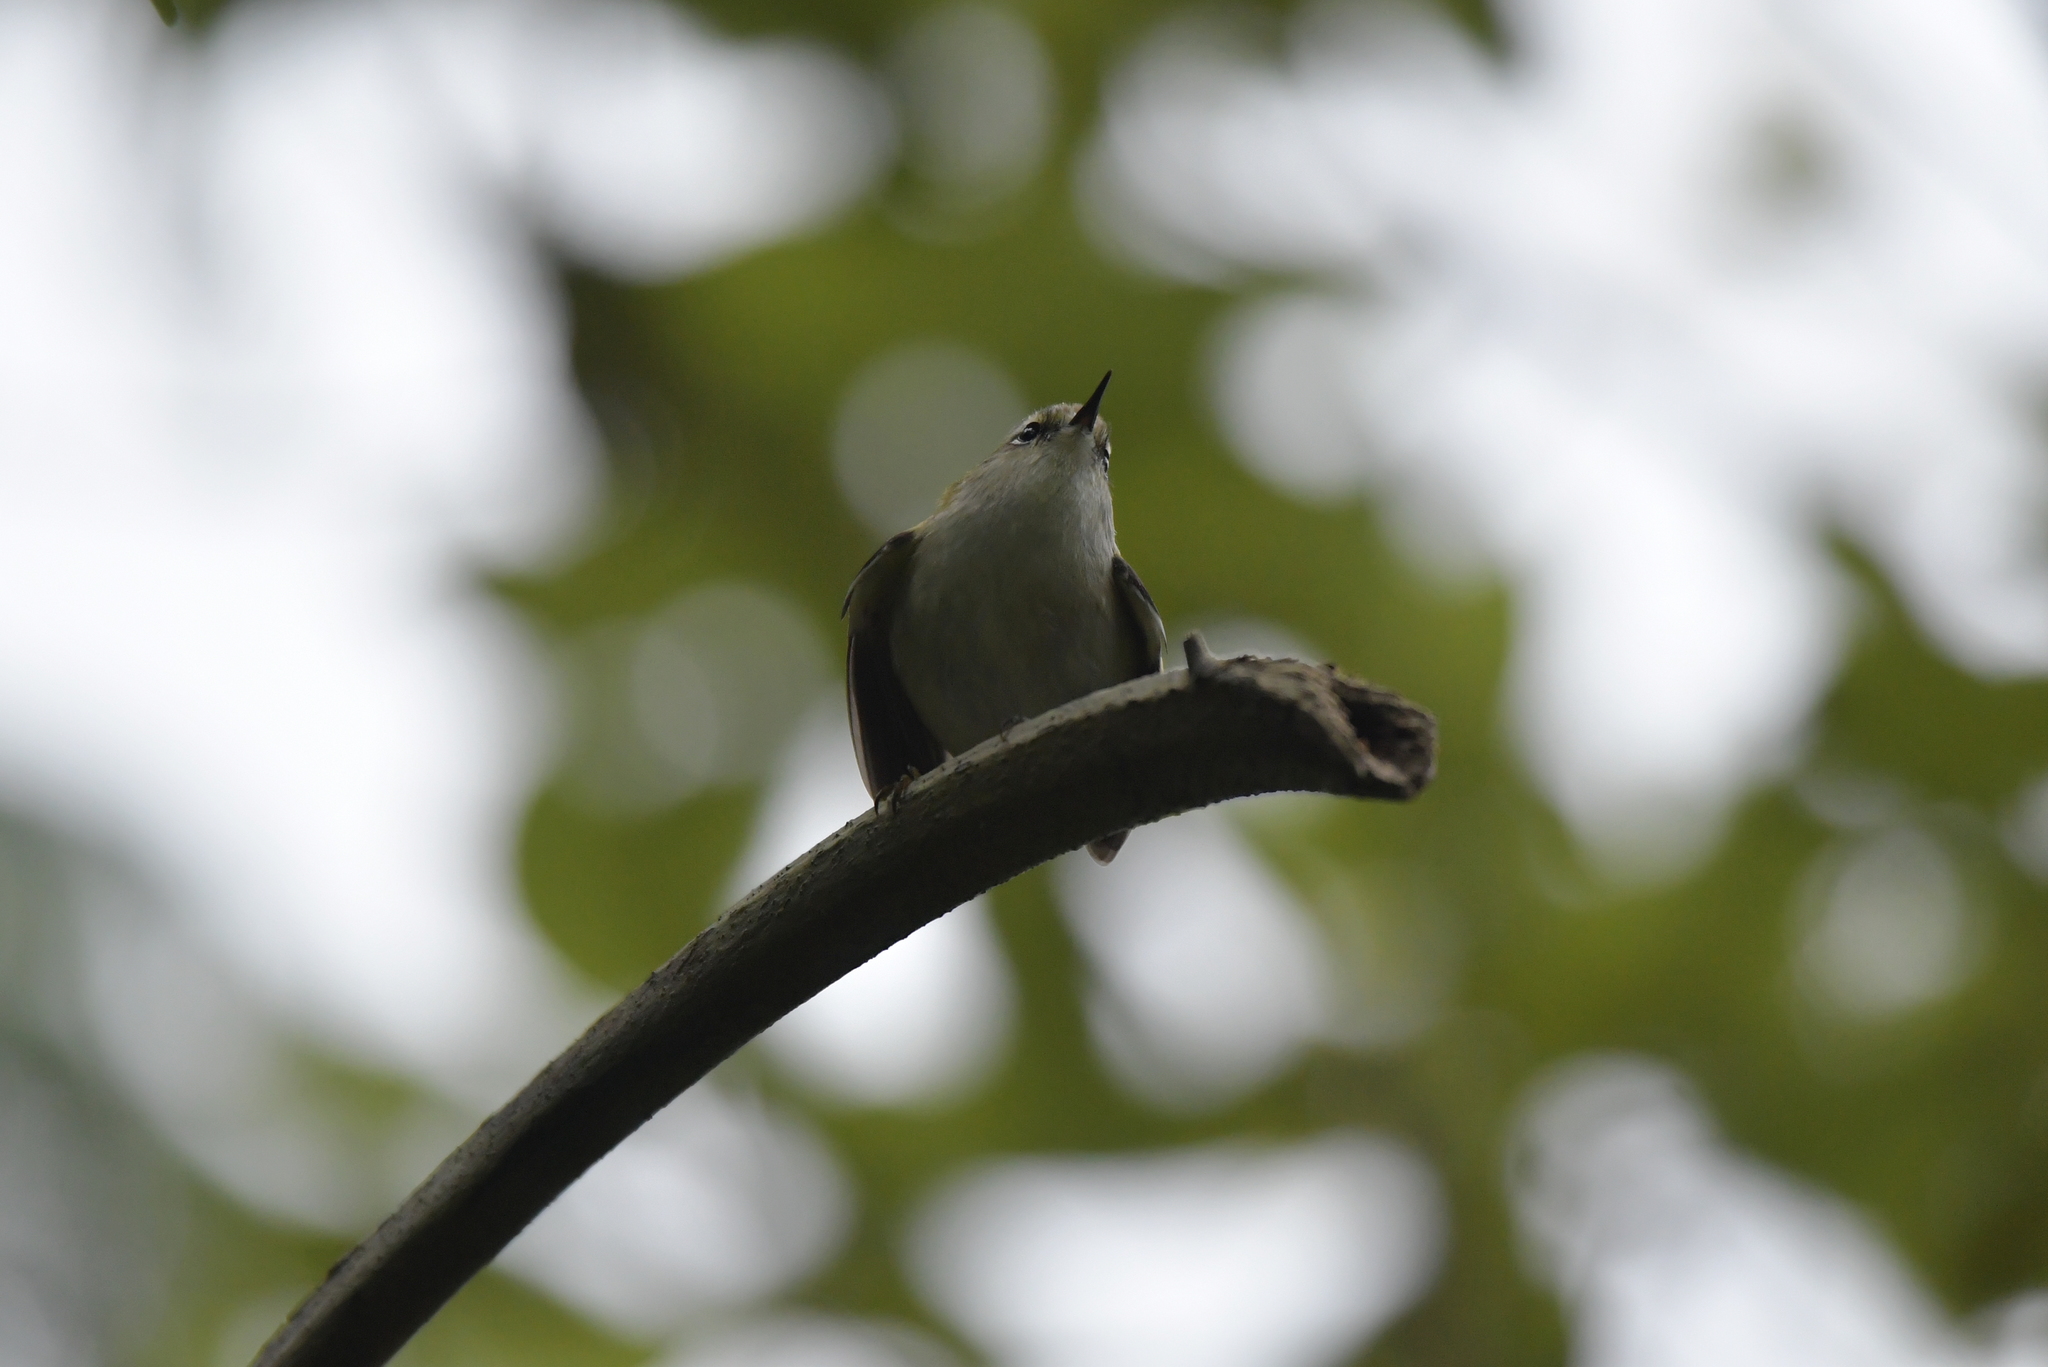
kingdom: Animalia
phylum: Chordata
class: Aves
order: Passeriformes
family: Acanthisittidae
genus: Acanthisitta
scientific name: Acanthisitta chloris
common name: Rifleman
